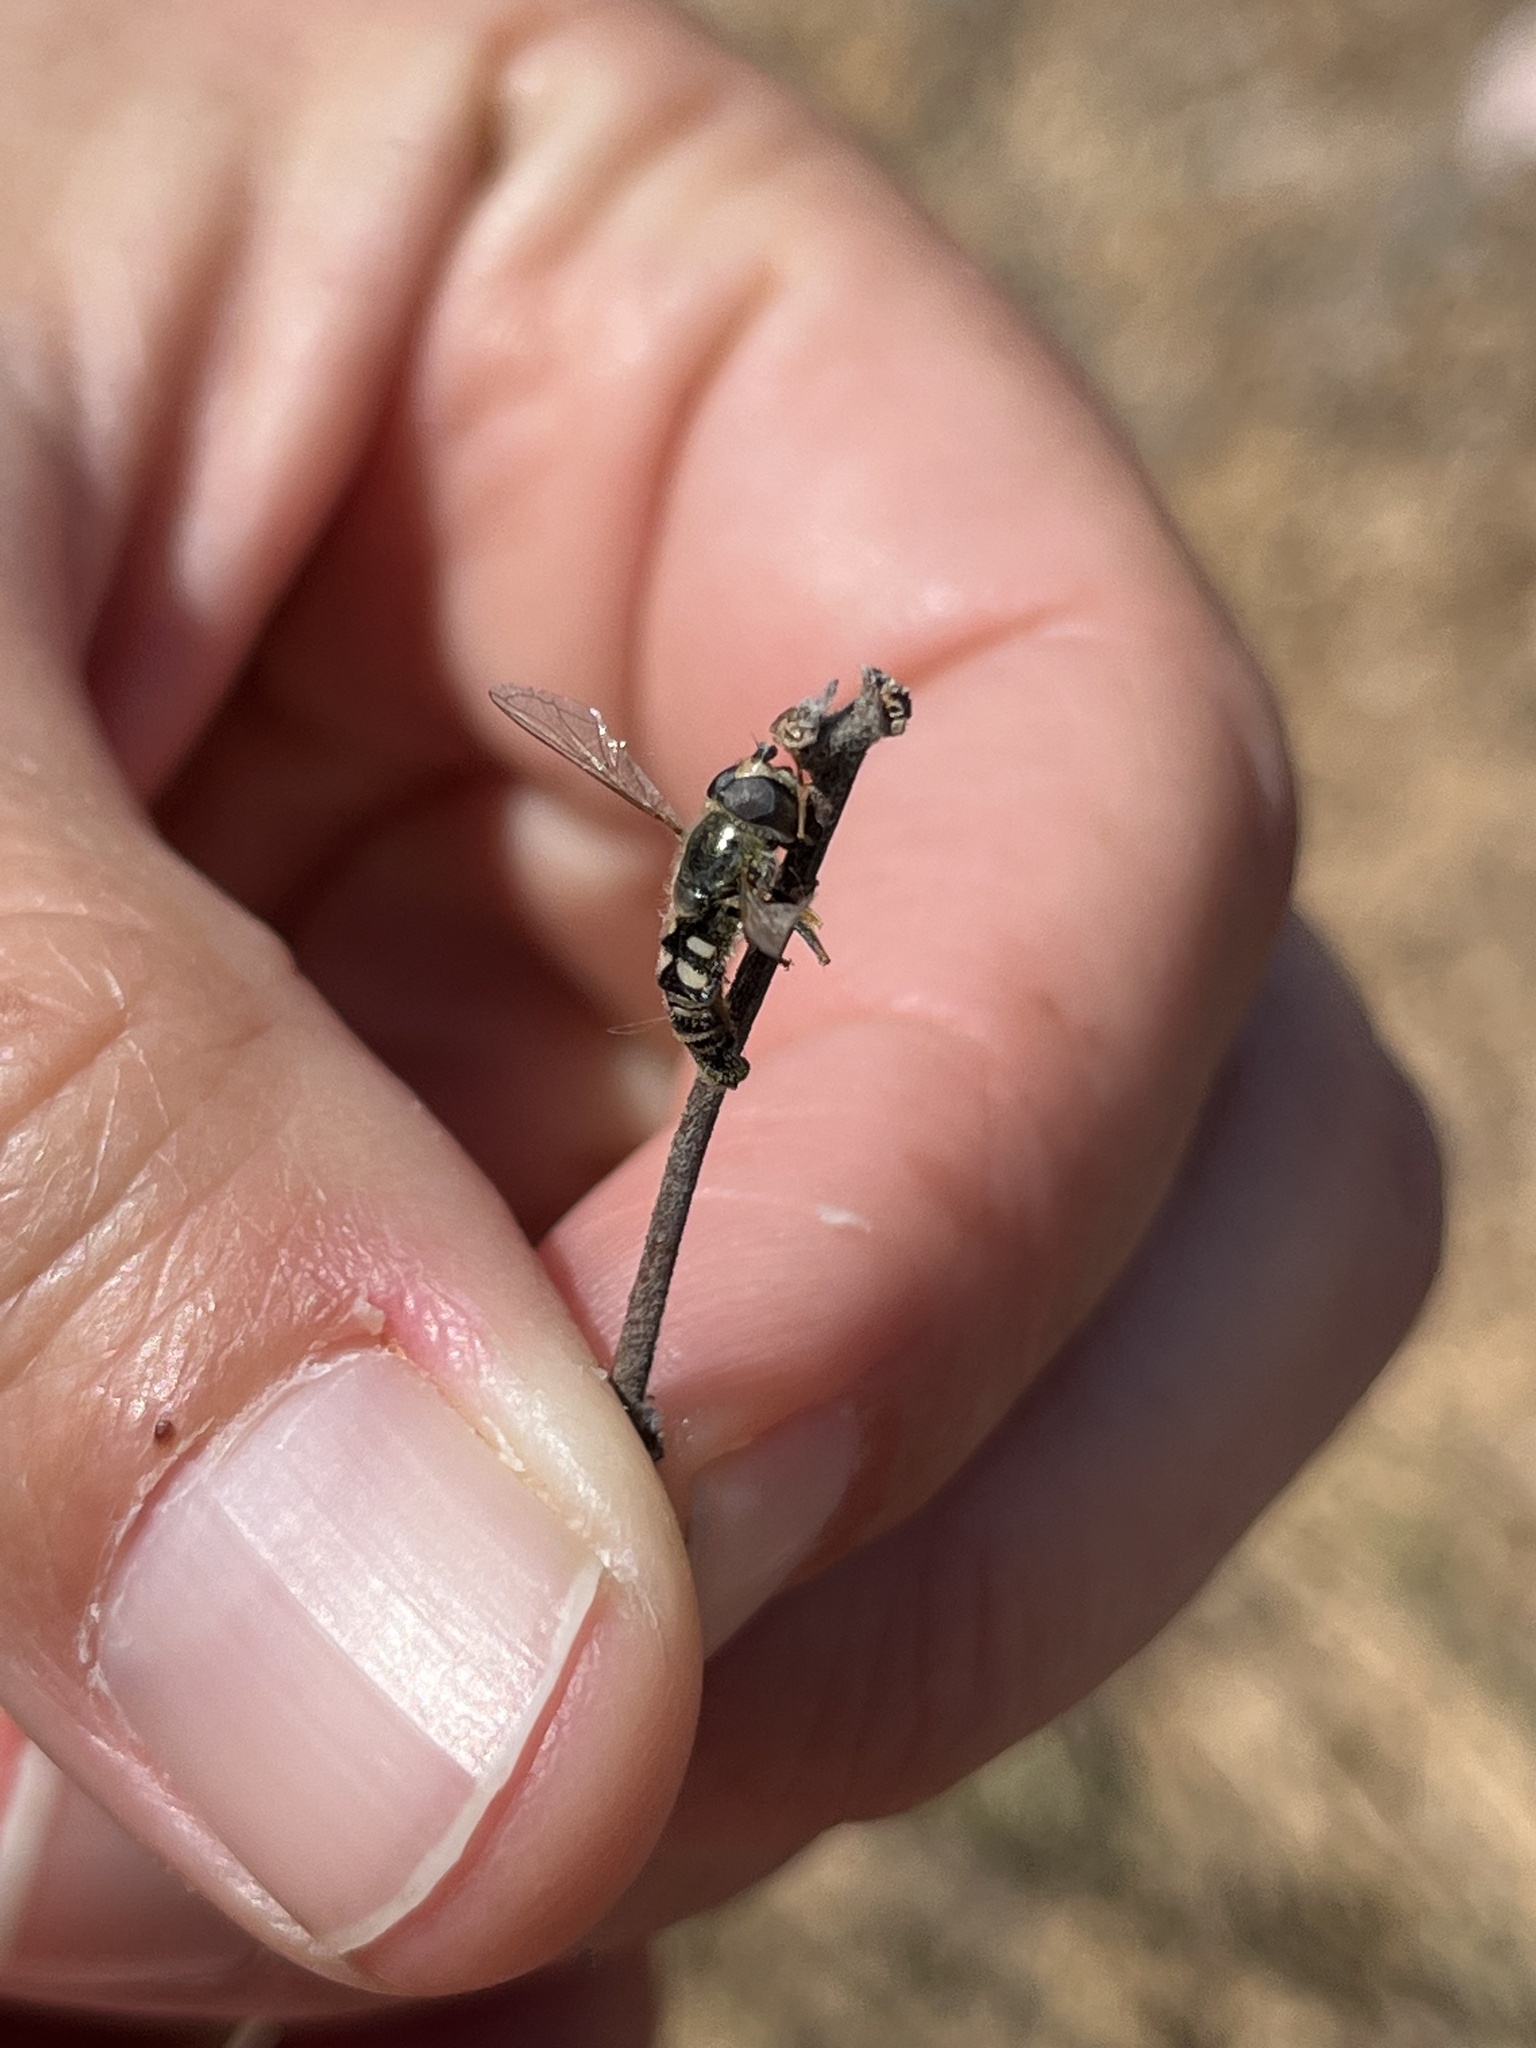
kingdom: Animalia
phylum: Arthropoda
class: Insecta
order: Diptera
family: Syrphidae
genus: Eupeodes
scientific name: Eupeodes volucris
